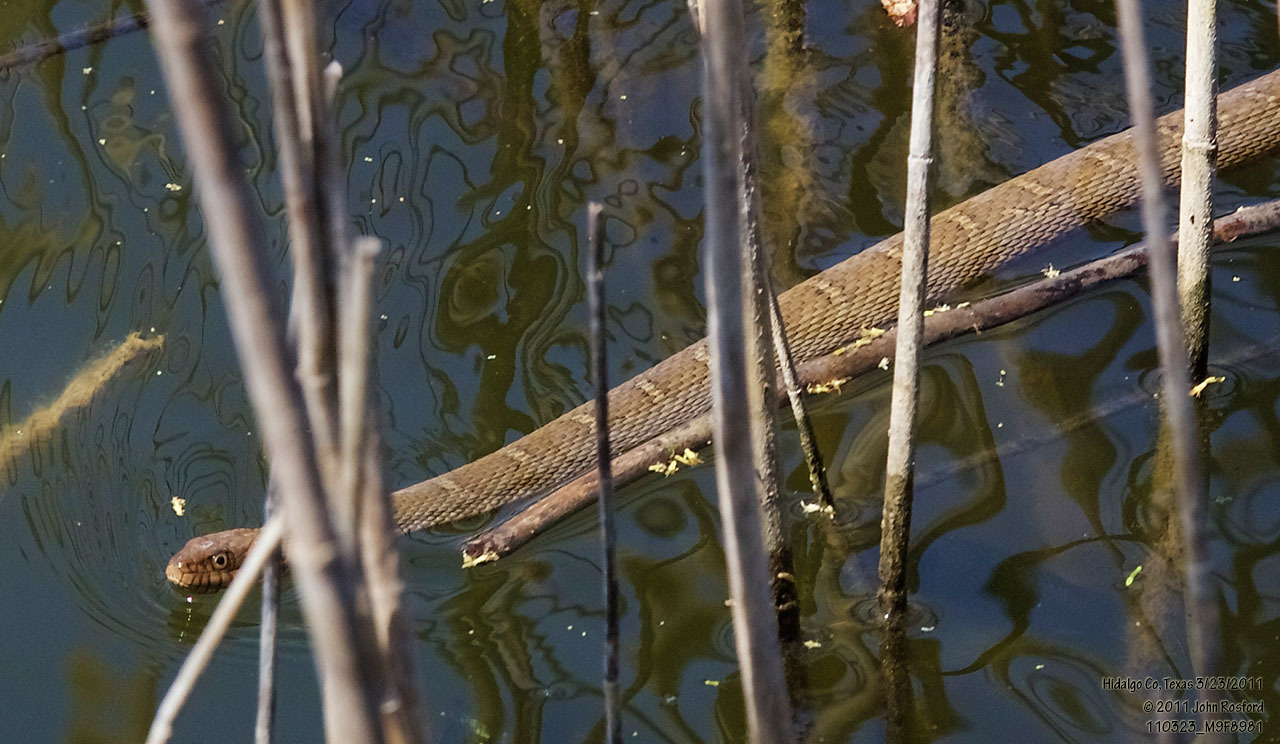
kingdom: Animalia
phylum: Chordata
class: Squamata
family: Colubridae
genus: Nerodia
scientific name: Nerodia erythrogaster
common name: Plainbelly water snake
